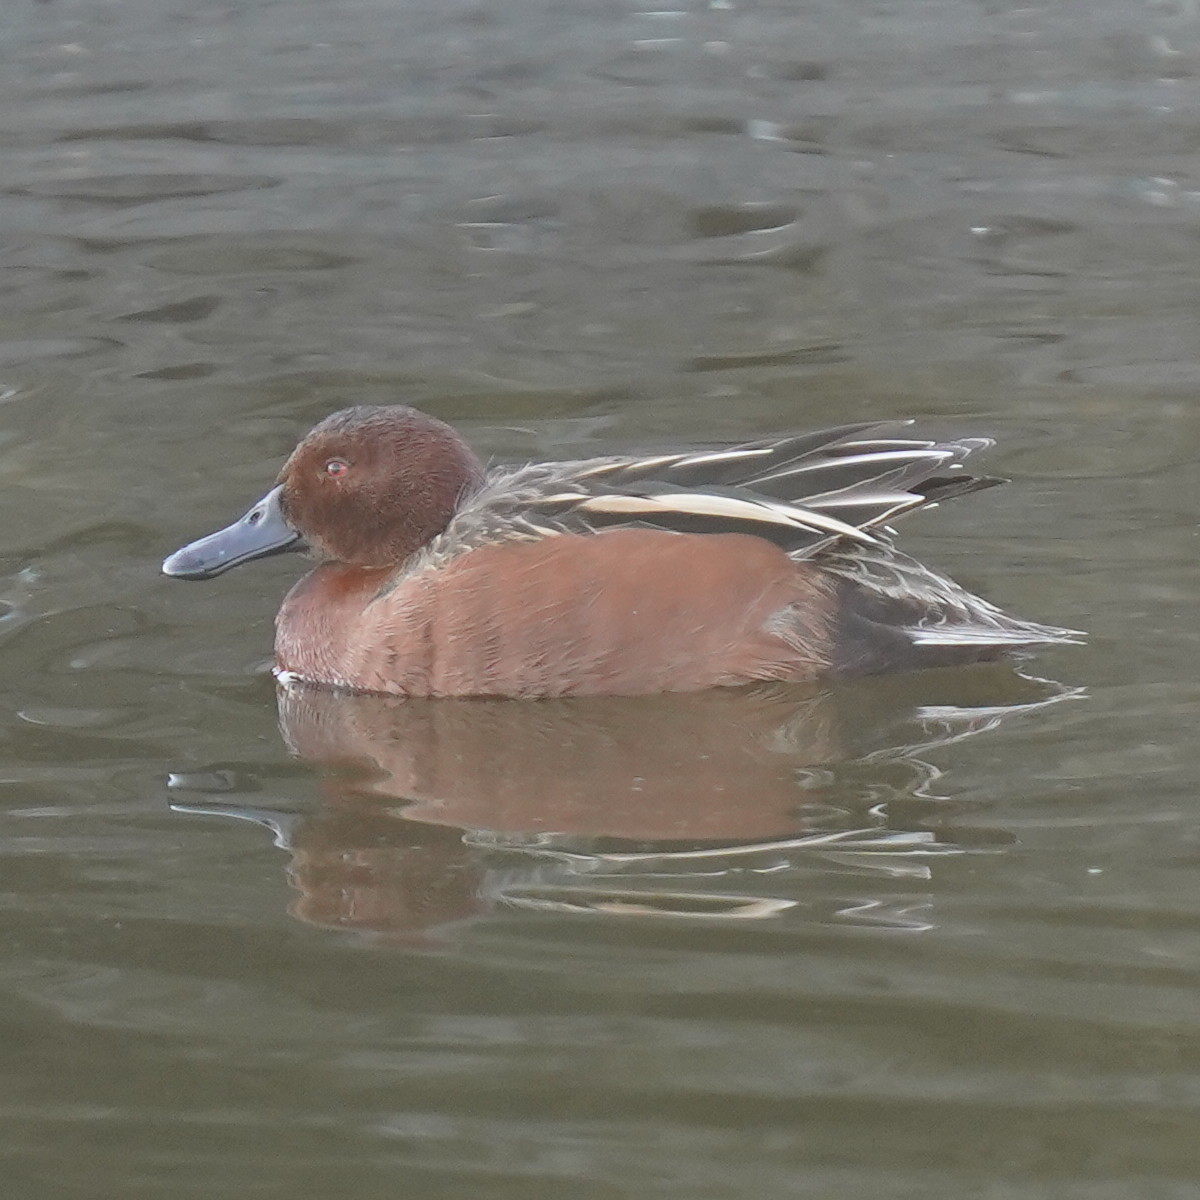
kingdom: Animalia
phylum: Chordata
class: Aves
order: Anseriformes
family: Anatidae
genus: Spatula
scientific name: Spatula cyanoptera
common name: Cinnamon teal
